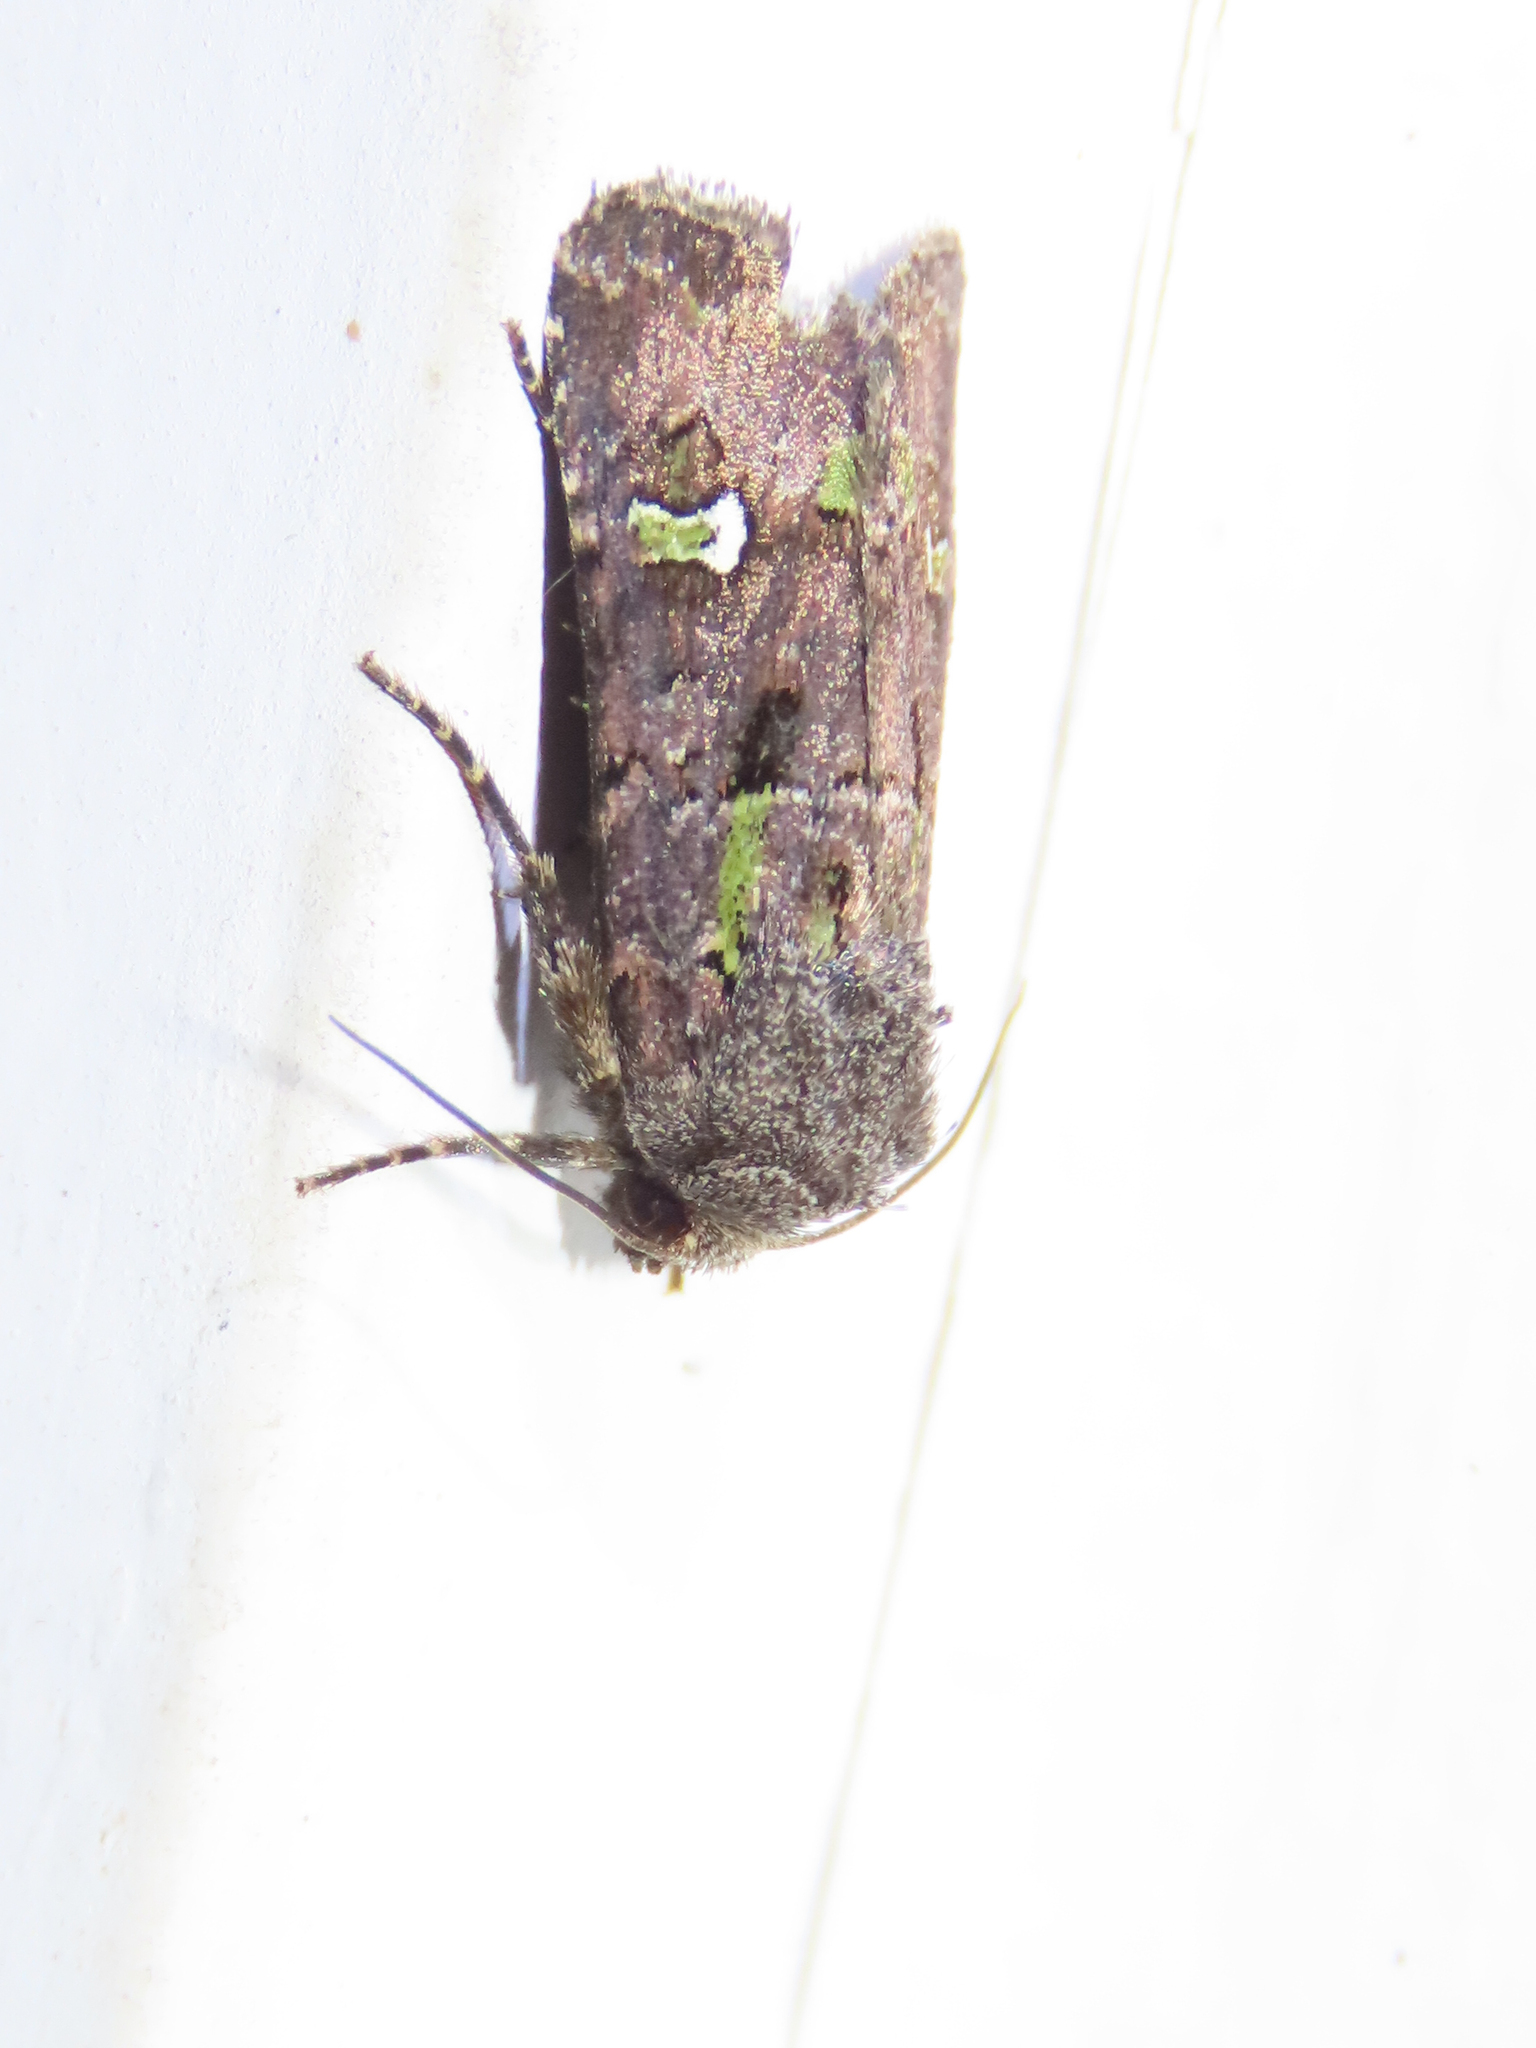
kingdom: Animalia
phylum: Arthropoda
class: Insecta
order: Lepidoptera
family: Noctuidae
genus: Lacinipolia
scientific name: Lacinipolia renigera
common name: Kidney-spotted minor
